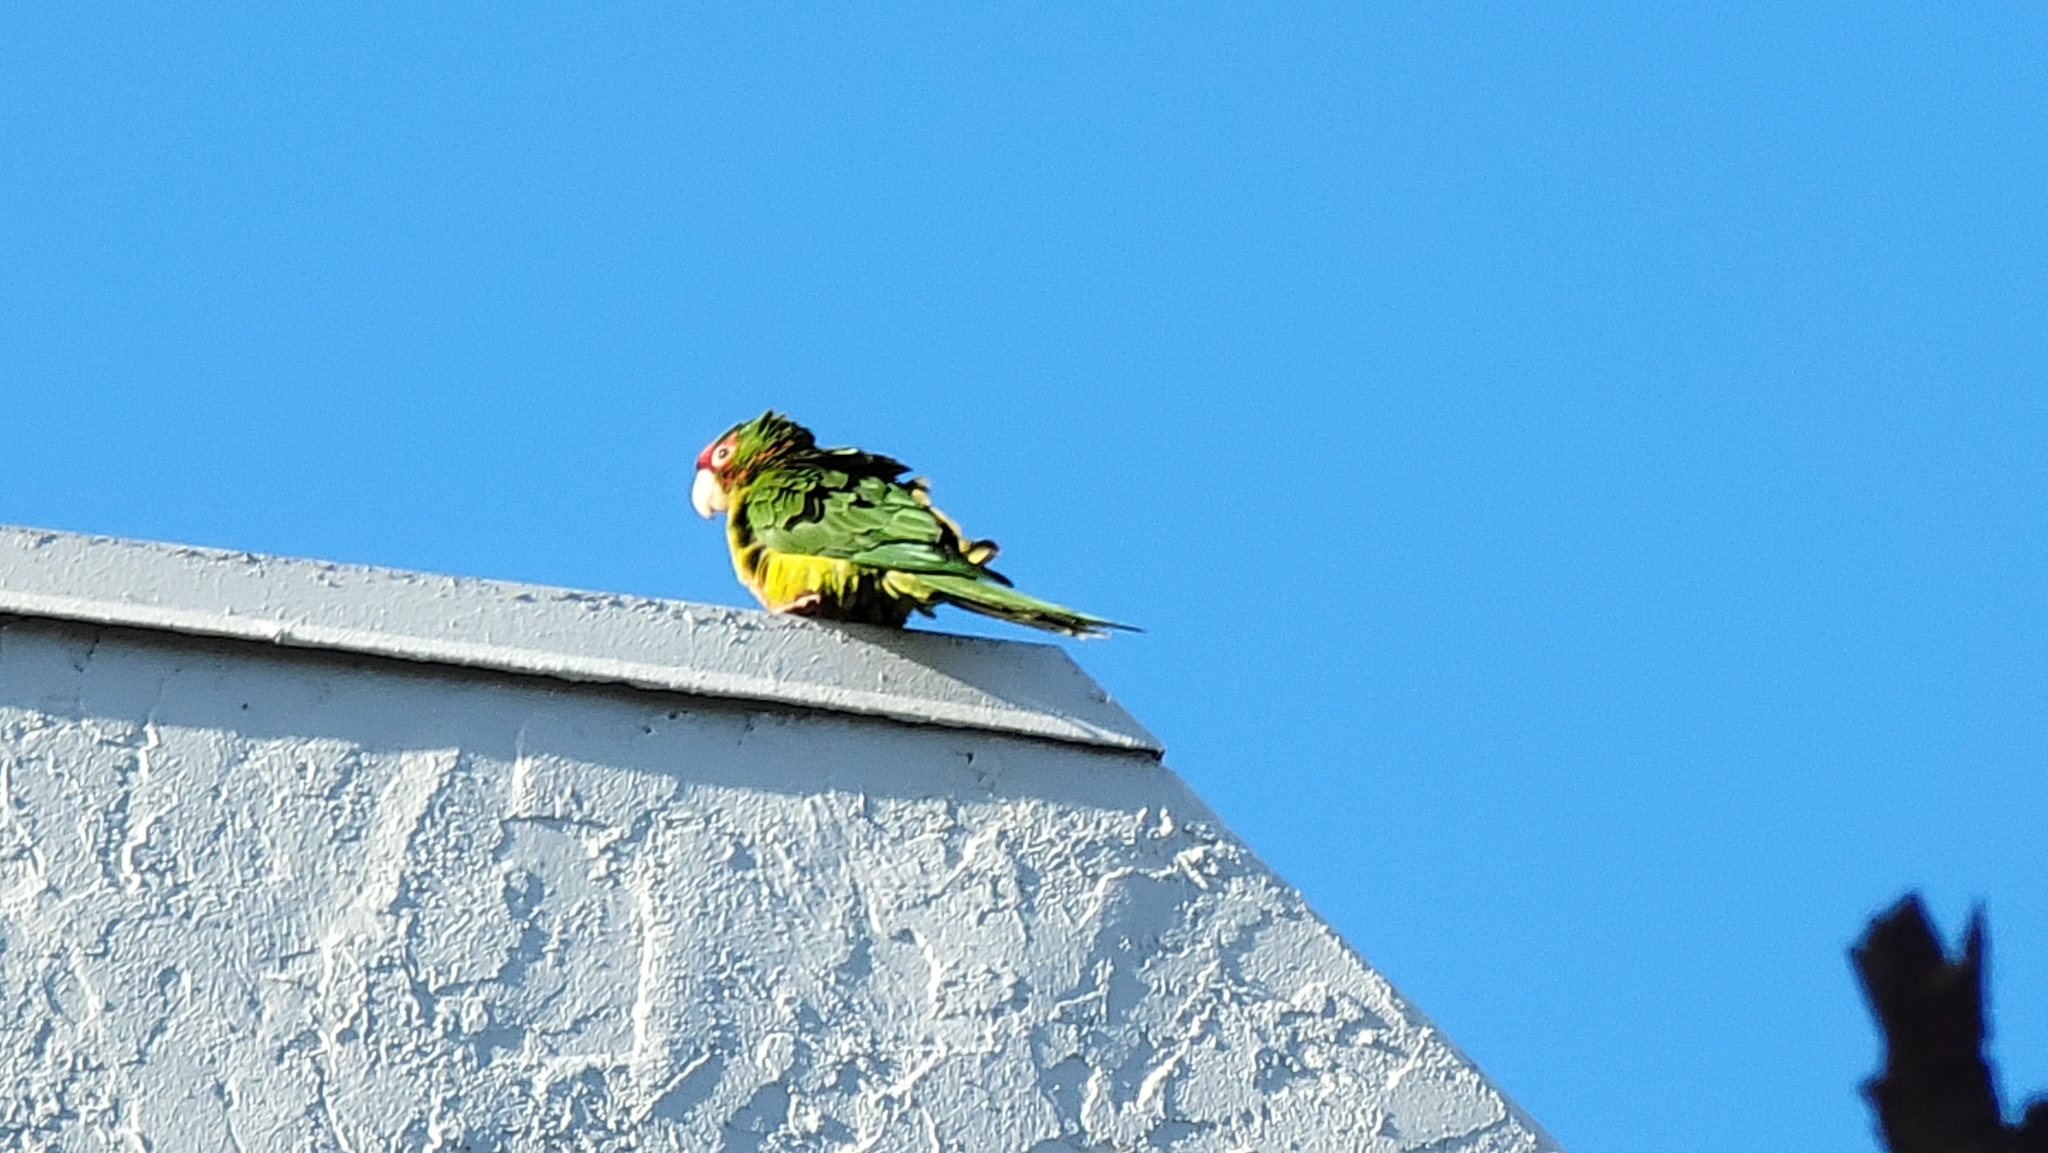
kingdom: Animalia
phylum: Chordata
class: Aves
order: Psittaciformes
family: Psittacidae
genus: Aratinga
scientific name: Aratinga mitrata
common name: Mitred parakeet
